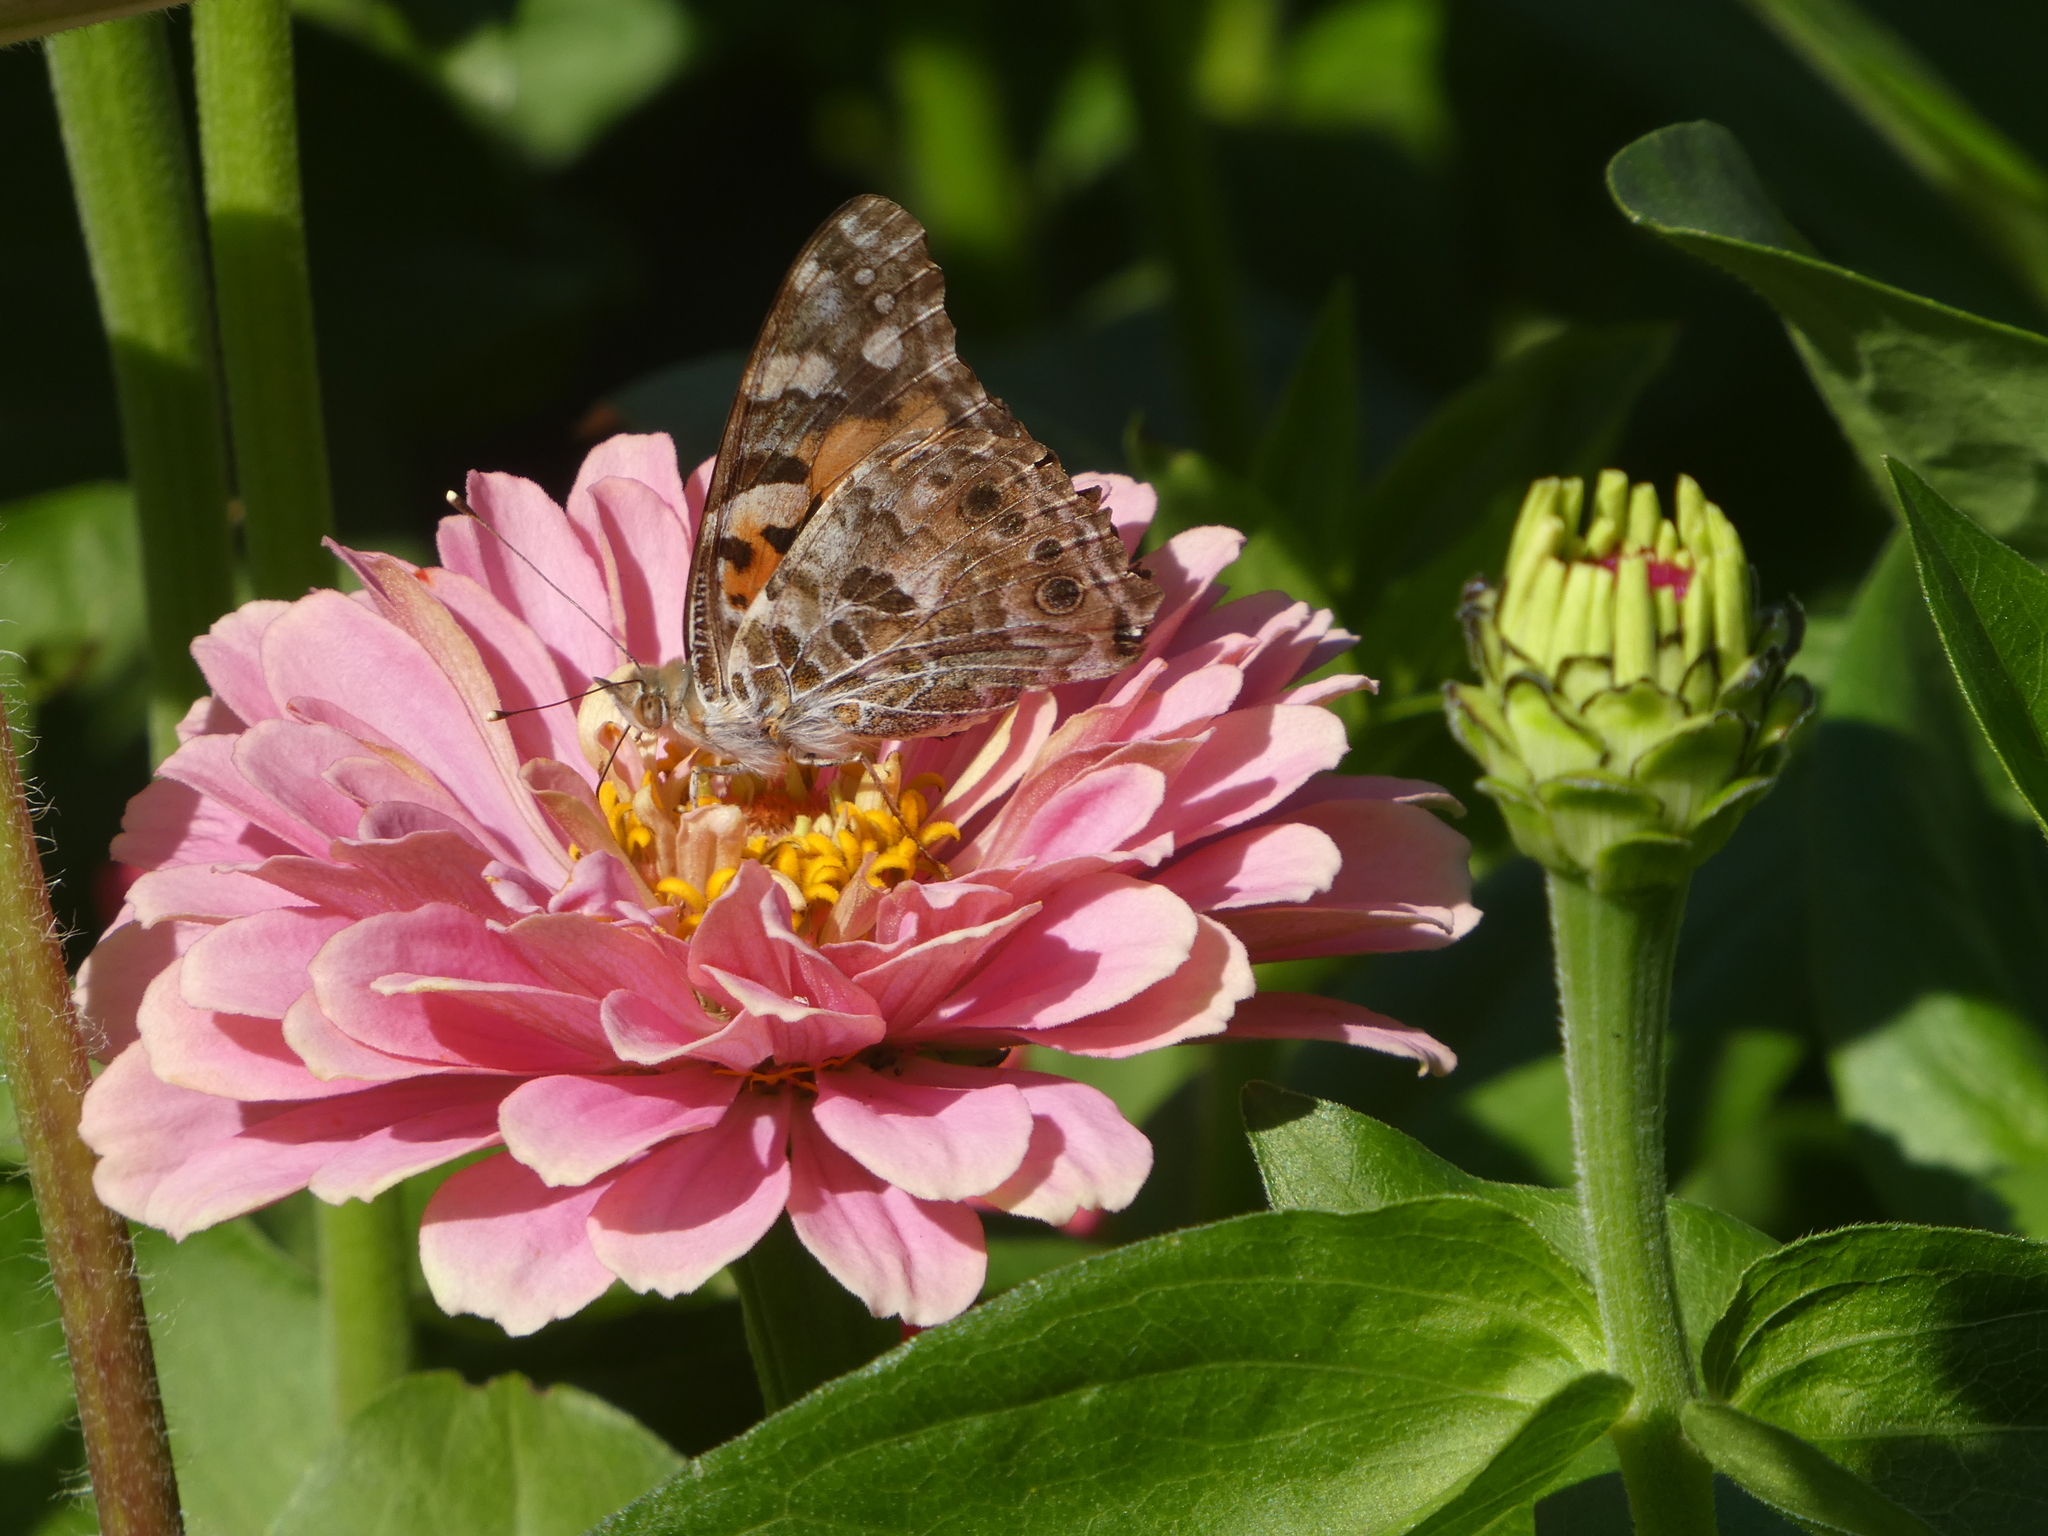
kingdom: Animalia
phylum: Arthropoda
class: Insecta
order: Lepidoptera
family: Nymphalidae
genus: Vanessa
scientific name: Vanessa cardui
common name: Painted lady
